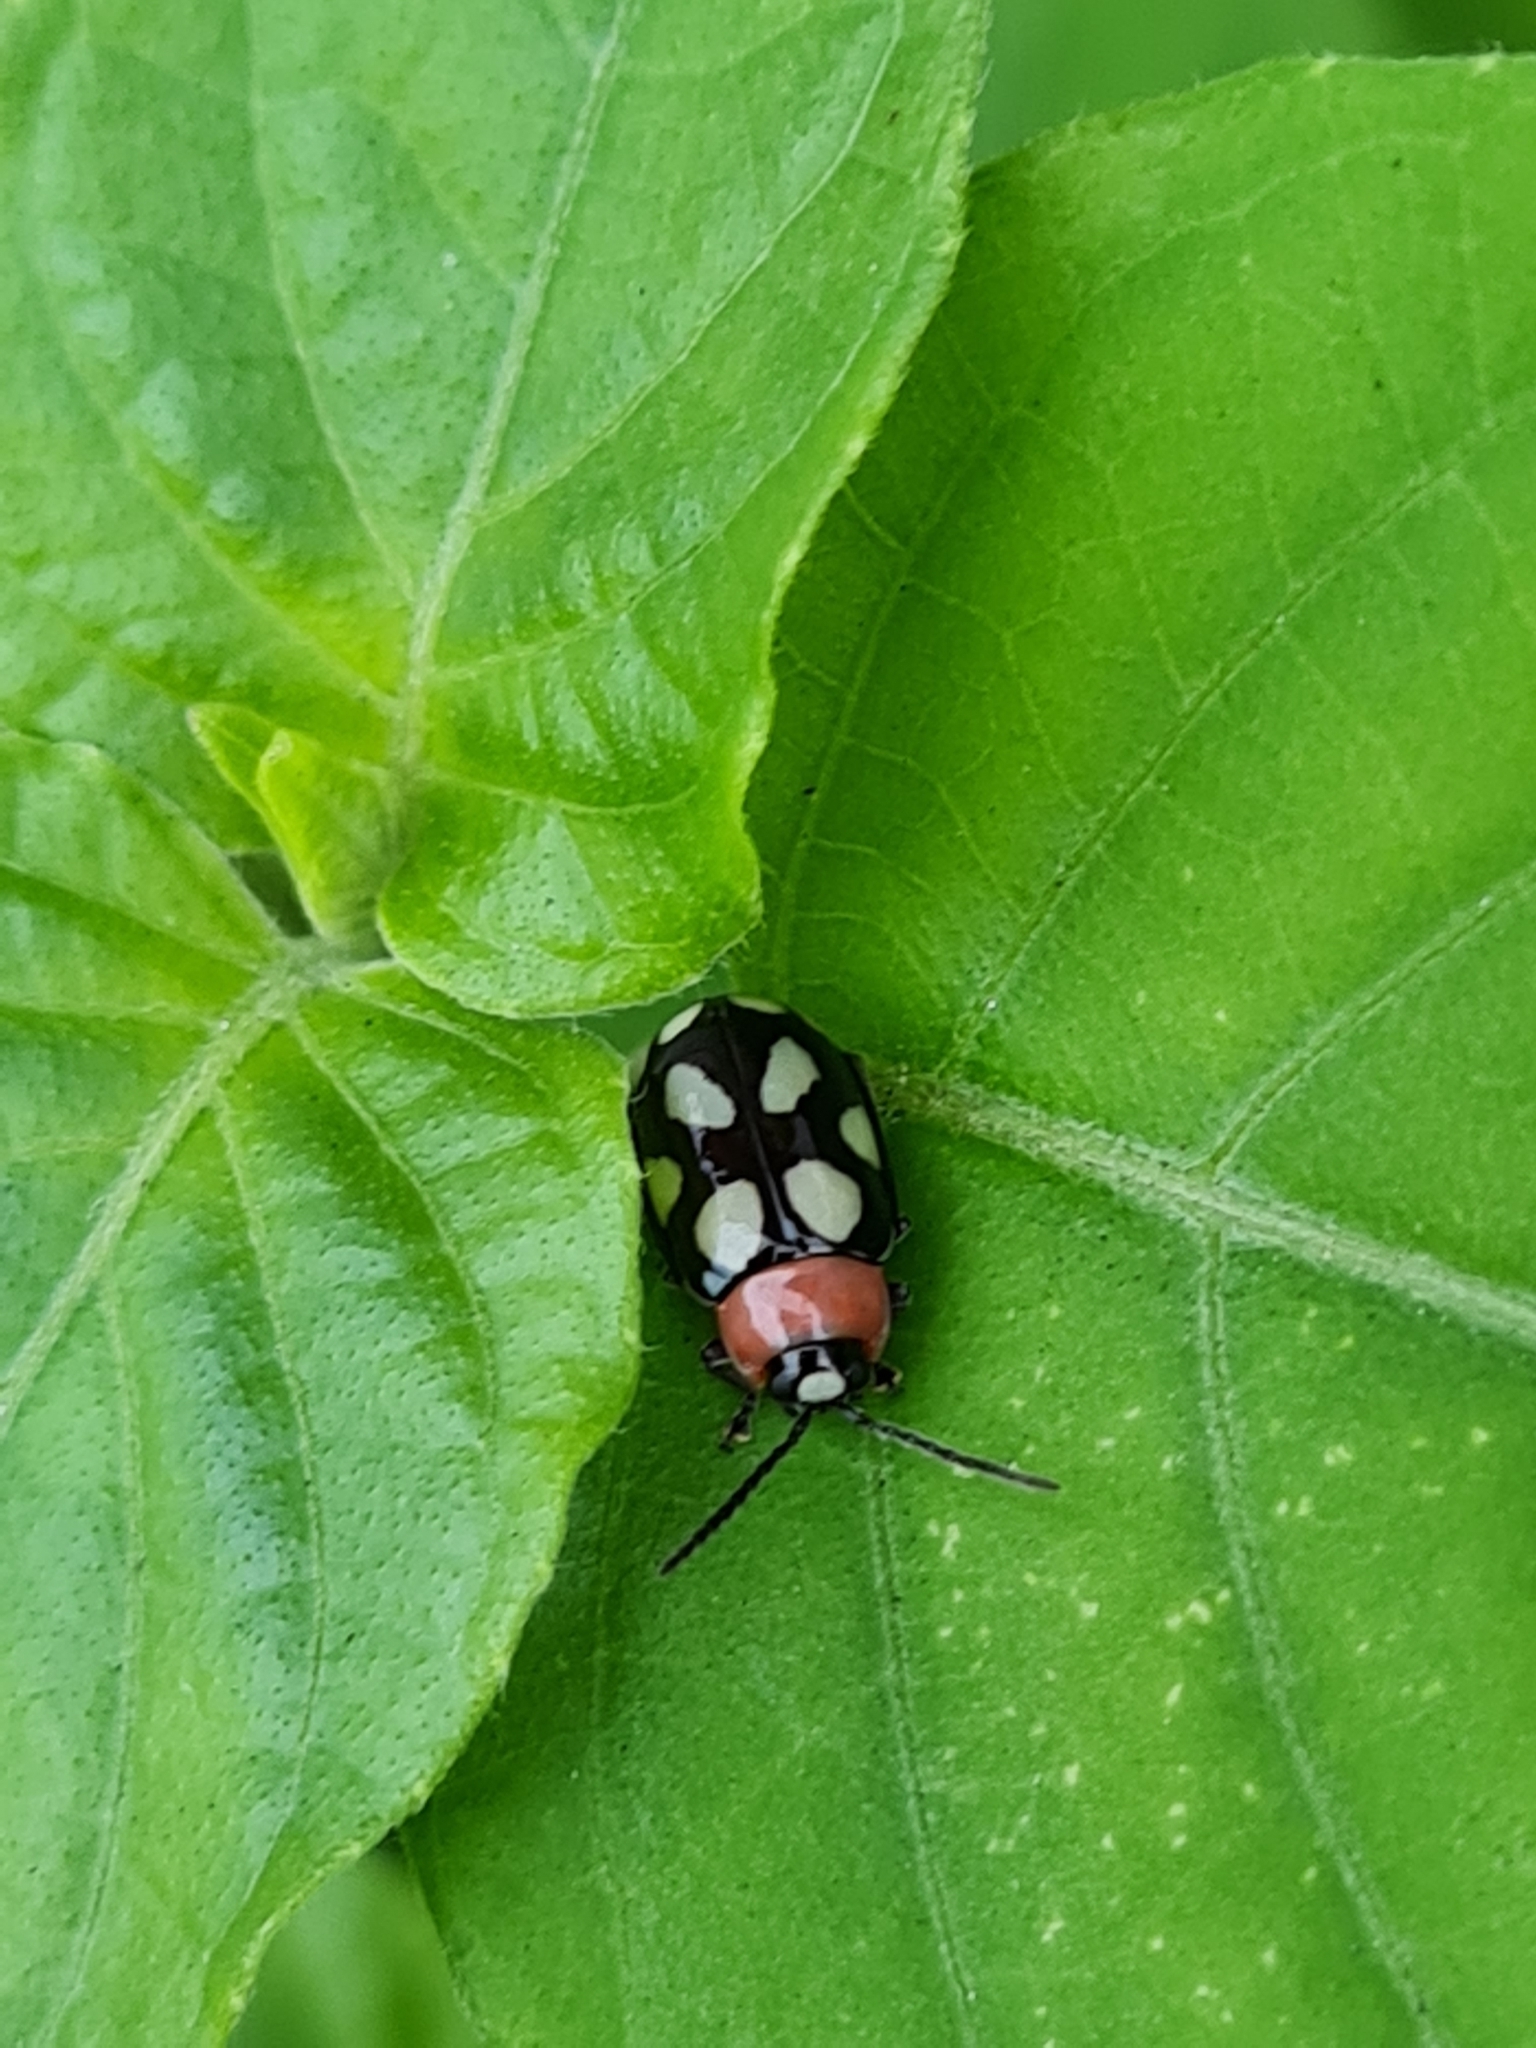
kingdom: Animalia
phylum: Arthropoda
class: Insecta
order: Coleoptera
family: Chrysomelidae
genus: Omophoita
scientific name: Omophoita
